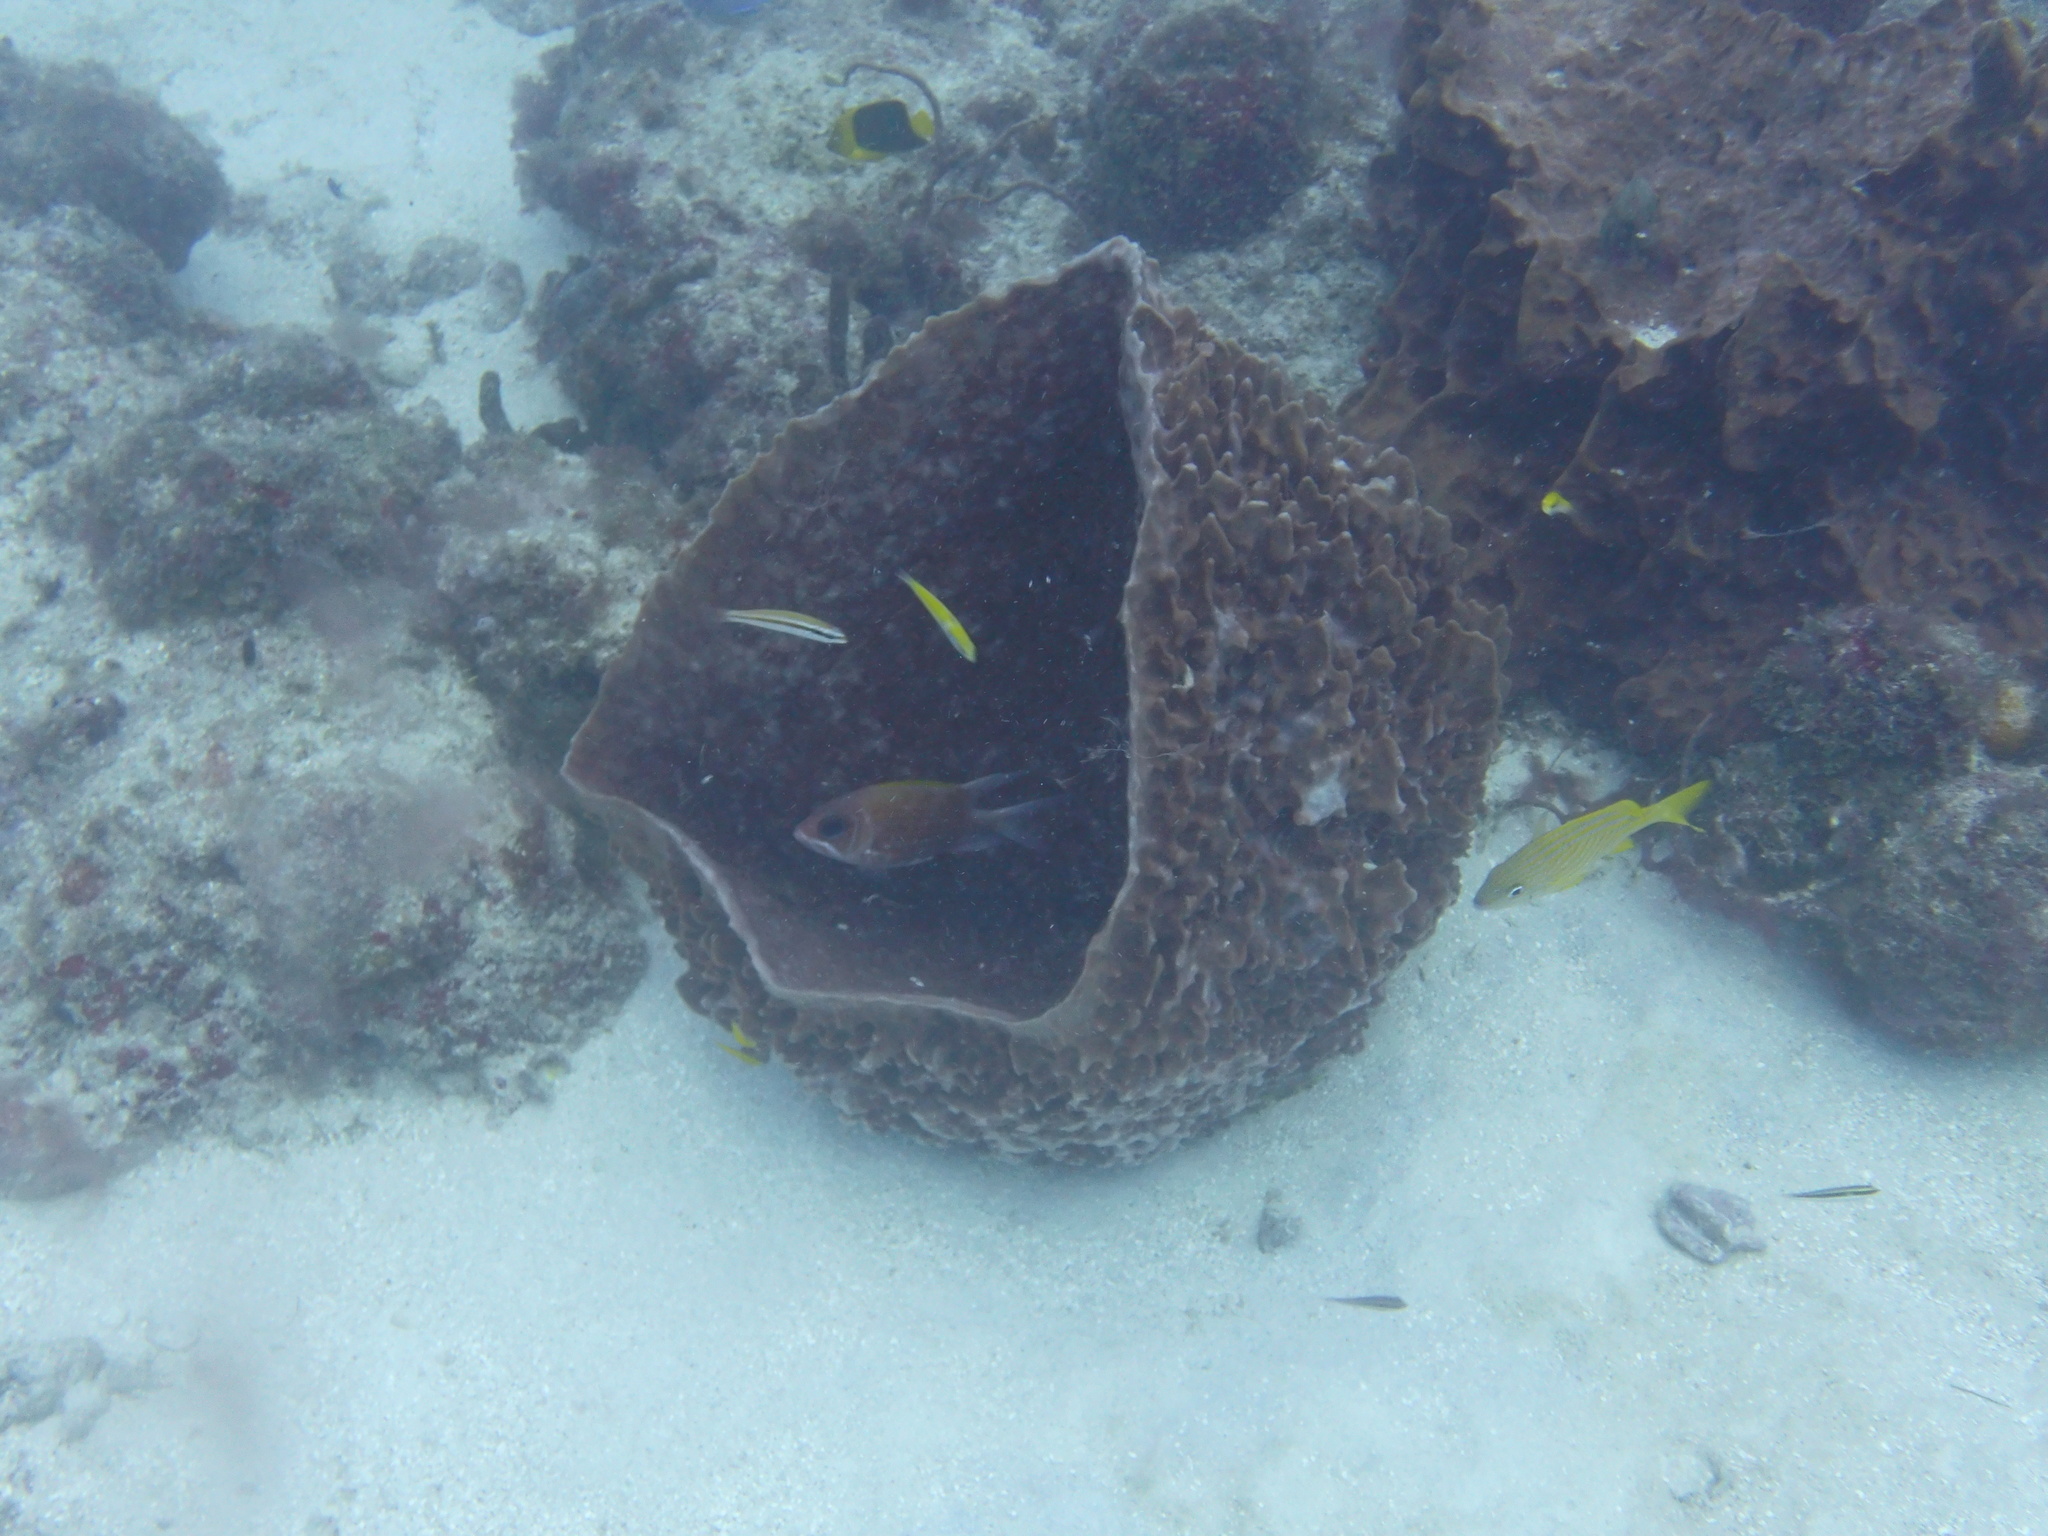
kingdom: Animalia
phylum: Porifera
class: Demospongiae
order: Haplosclerida
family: Petrosiidae
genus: Xestospongia
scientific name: Xestospongia muta
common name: Giant barrel sponge
